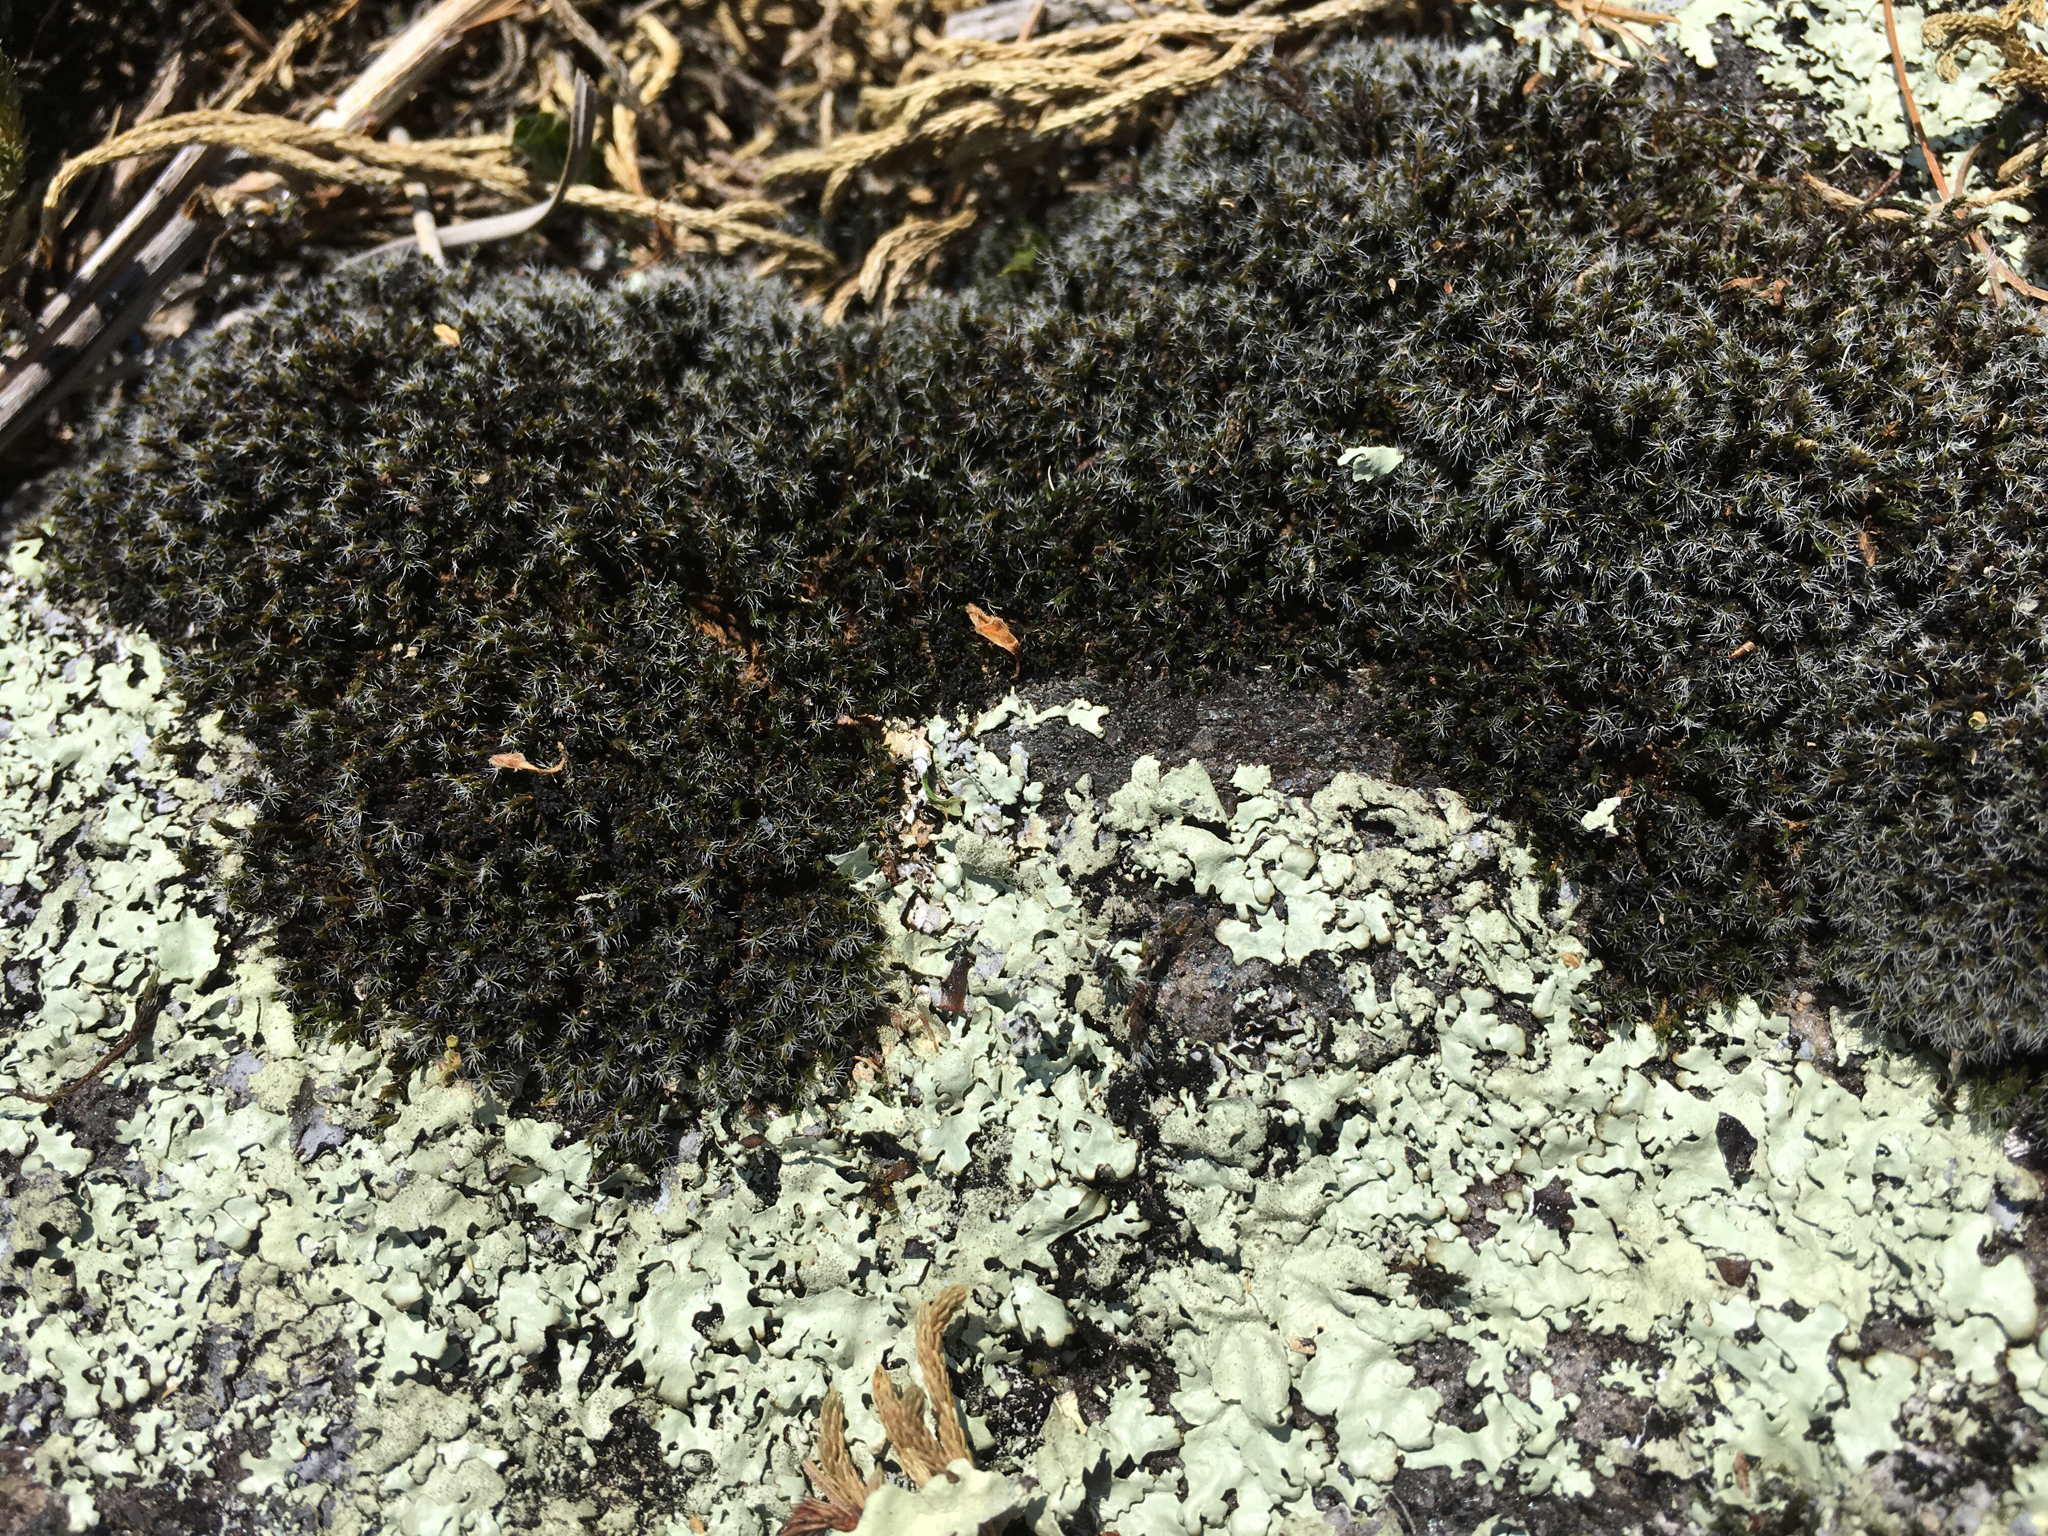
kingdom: Plantae
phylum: Bryophyta
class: Bryopsida
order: Grimmiales
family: Grimmiaceae
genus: Grimmia
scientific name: Grimmia laevigata
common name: Hoary grimmia
